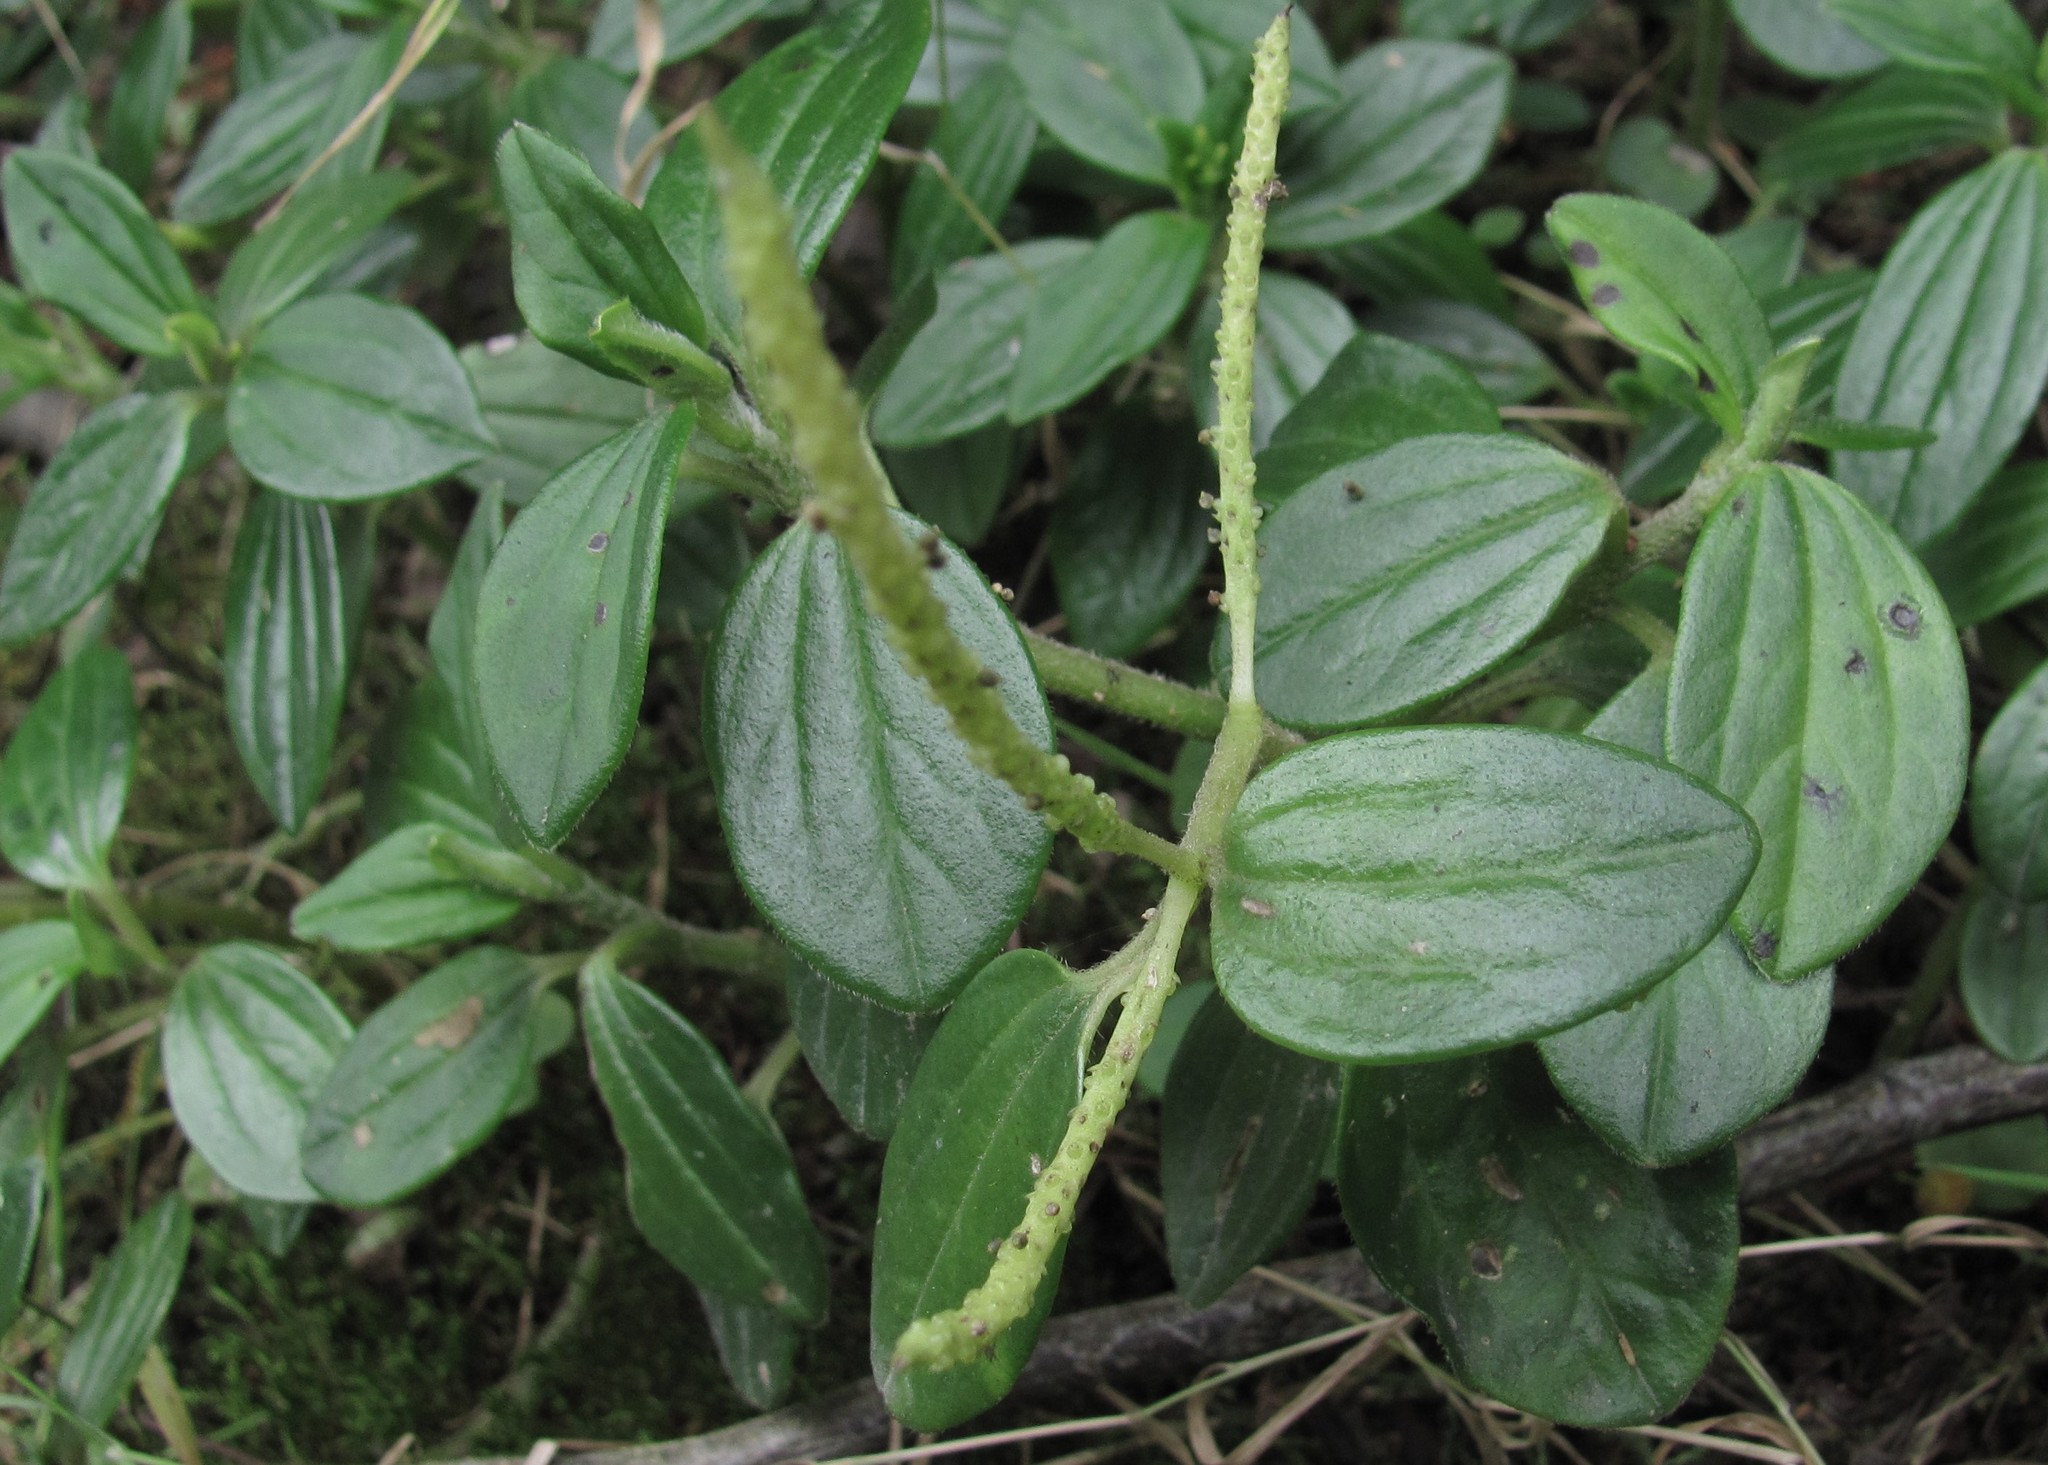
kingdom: Plantae
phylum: Tracheophyta
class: Magnoliopsida
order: Piperales
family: Piperaceae
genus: Peperomia
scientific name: Peperomia tequendamana
